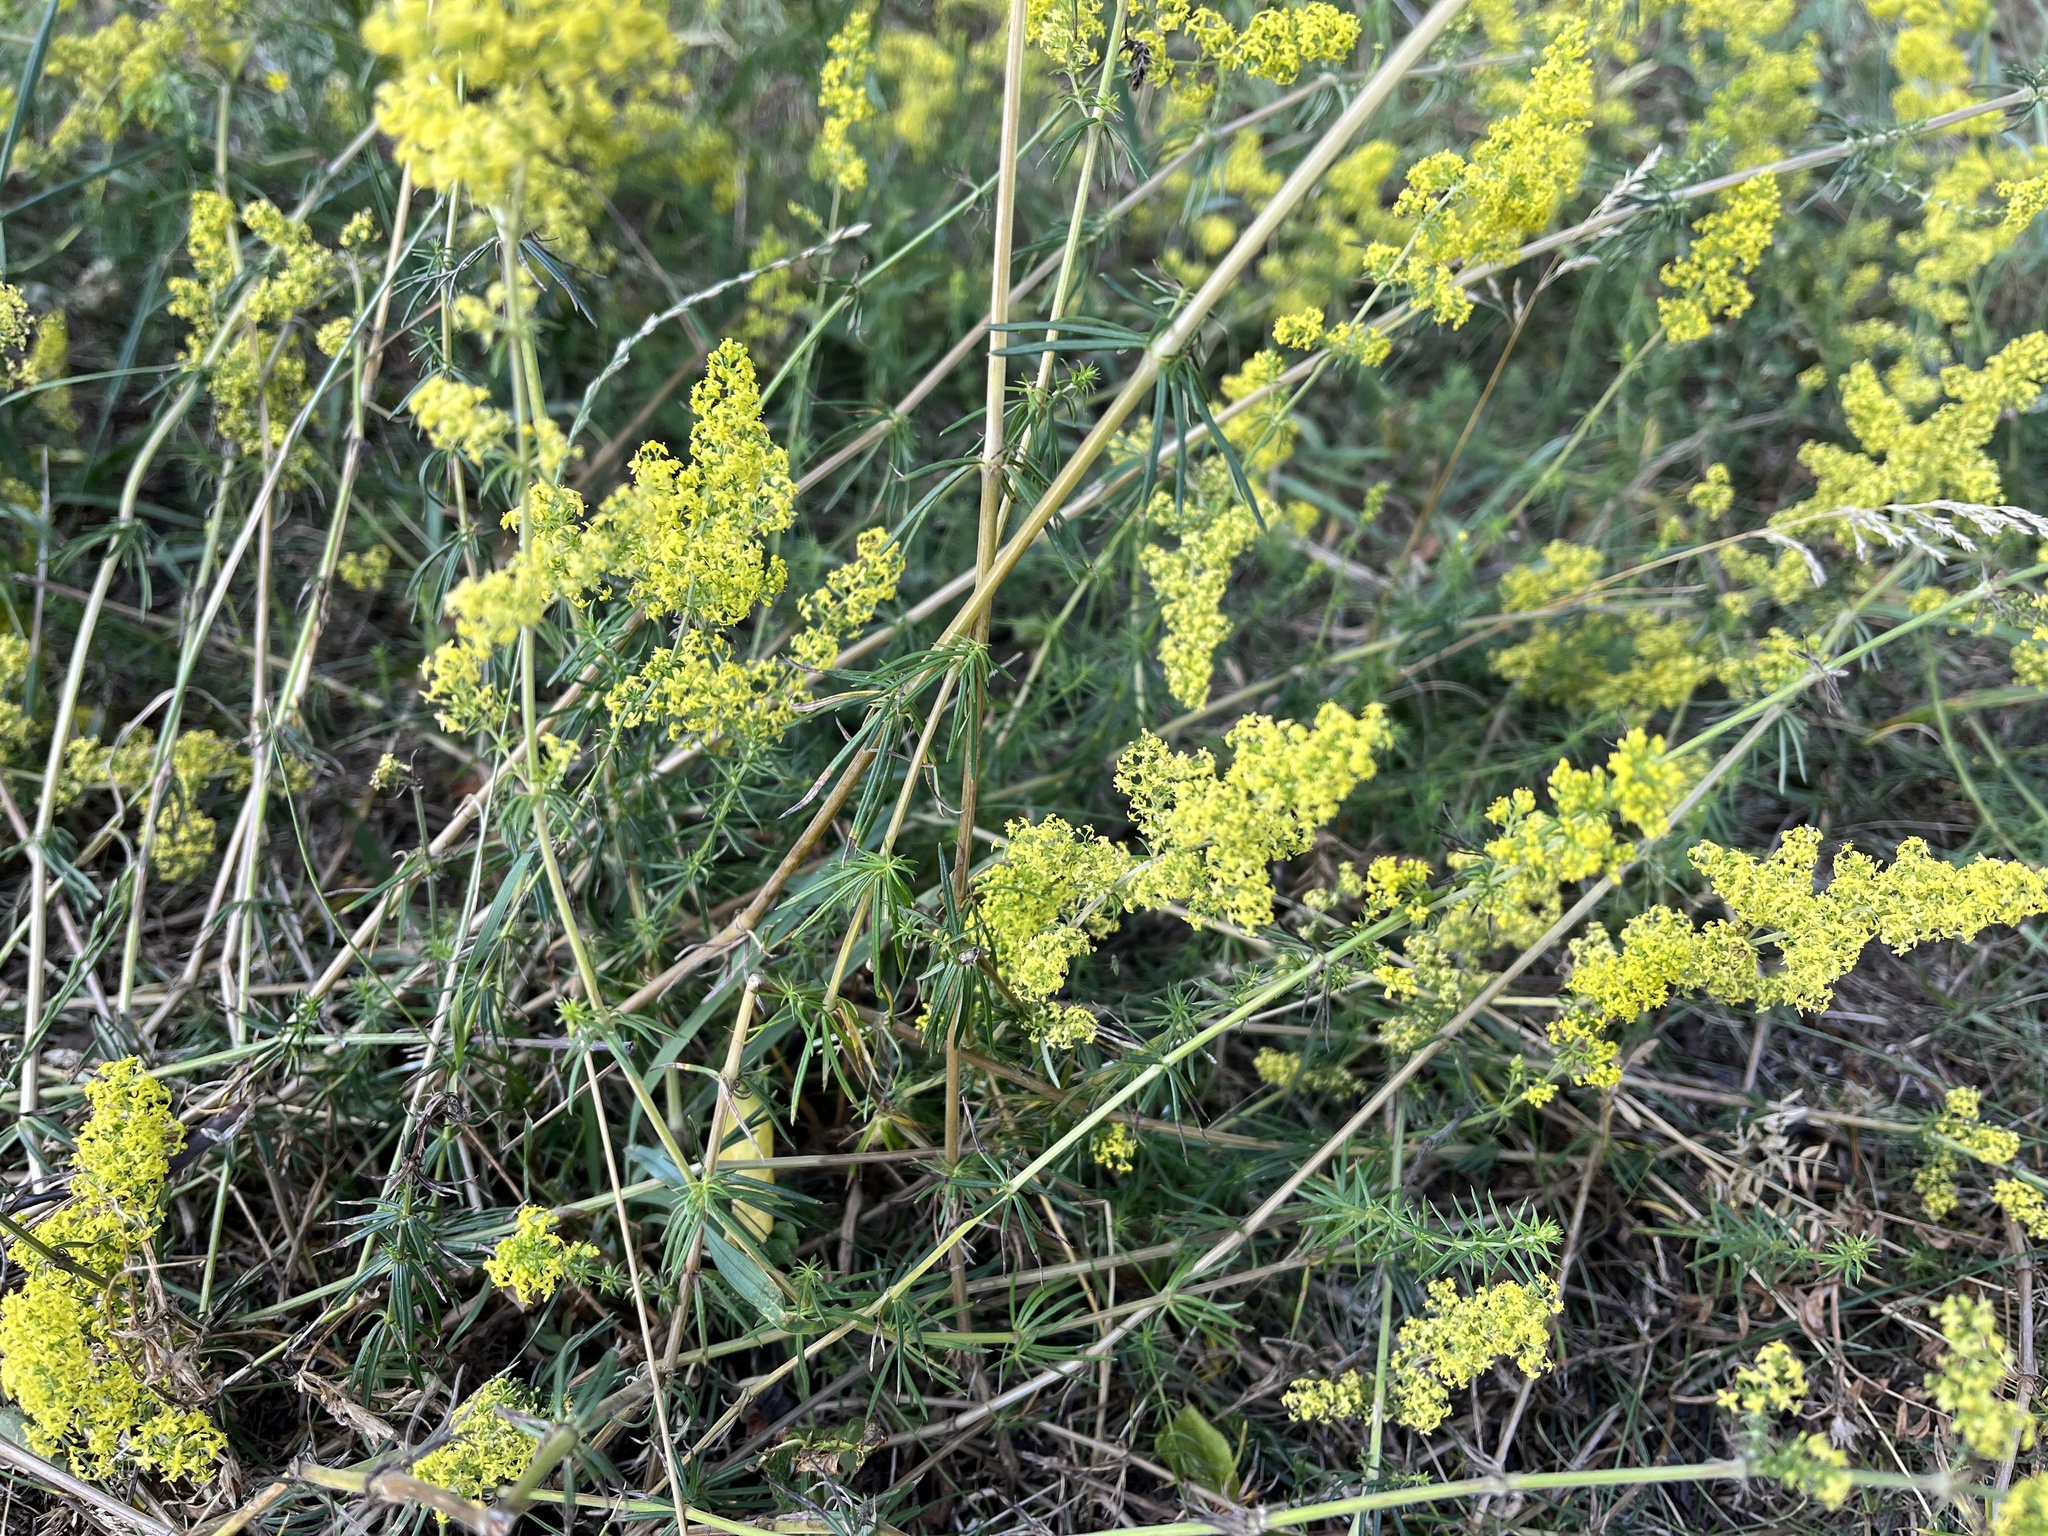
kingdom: Plantae
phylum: Tracheophyta
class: Magnoliopsida
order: Gentianales
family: Rubiaceae
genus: Galium
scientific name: Galium verum
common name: Lady's bedstraw
